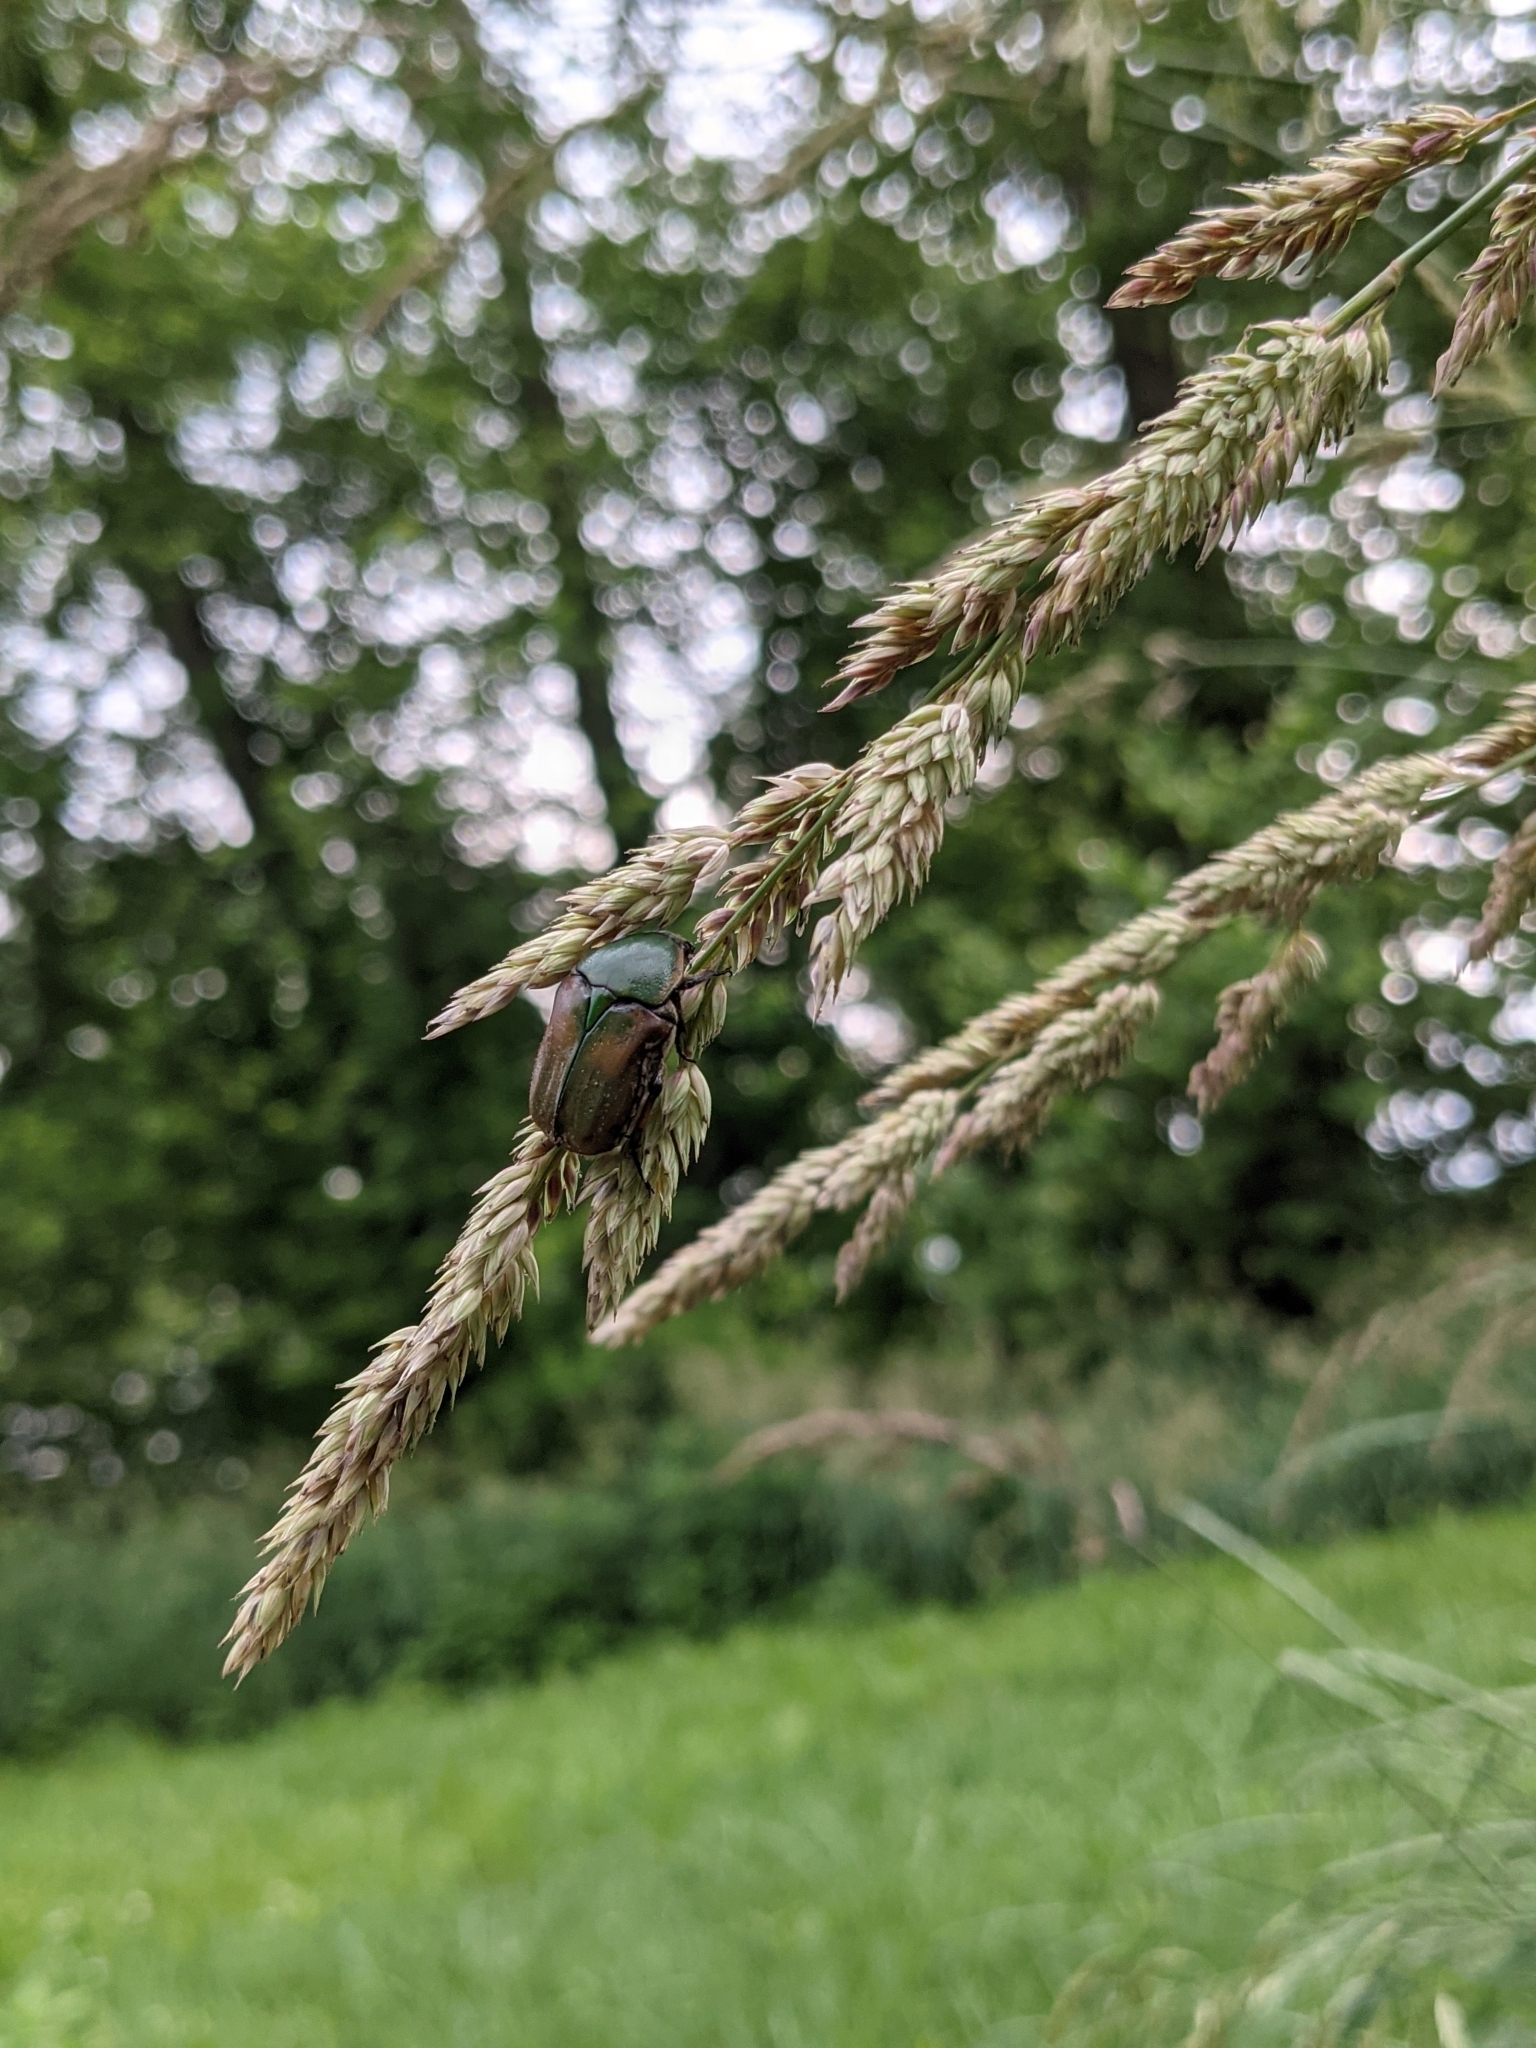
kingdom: Animalia
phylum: Arthropoda
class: Insecta
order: Coleoptera
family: Scarabaeidae
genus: Euphoria
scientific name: Euphoria fulgida
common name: Emerald euphoria
